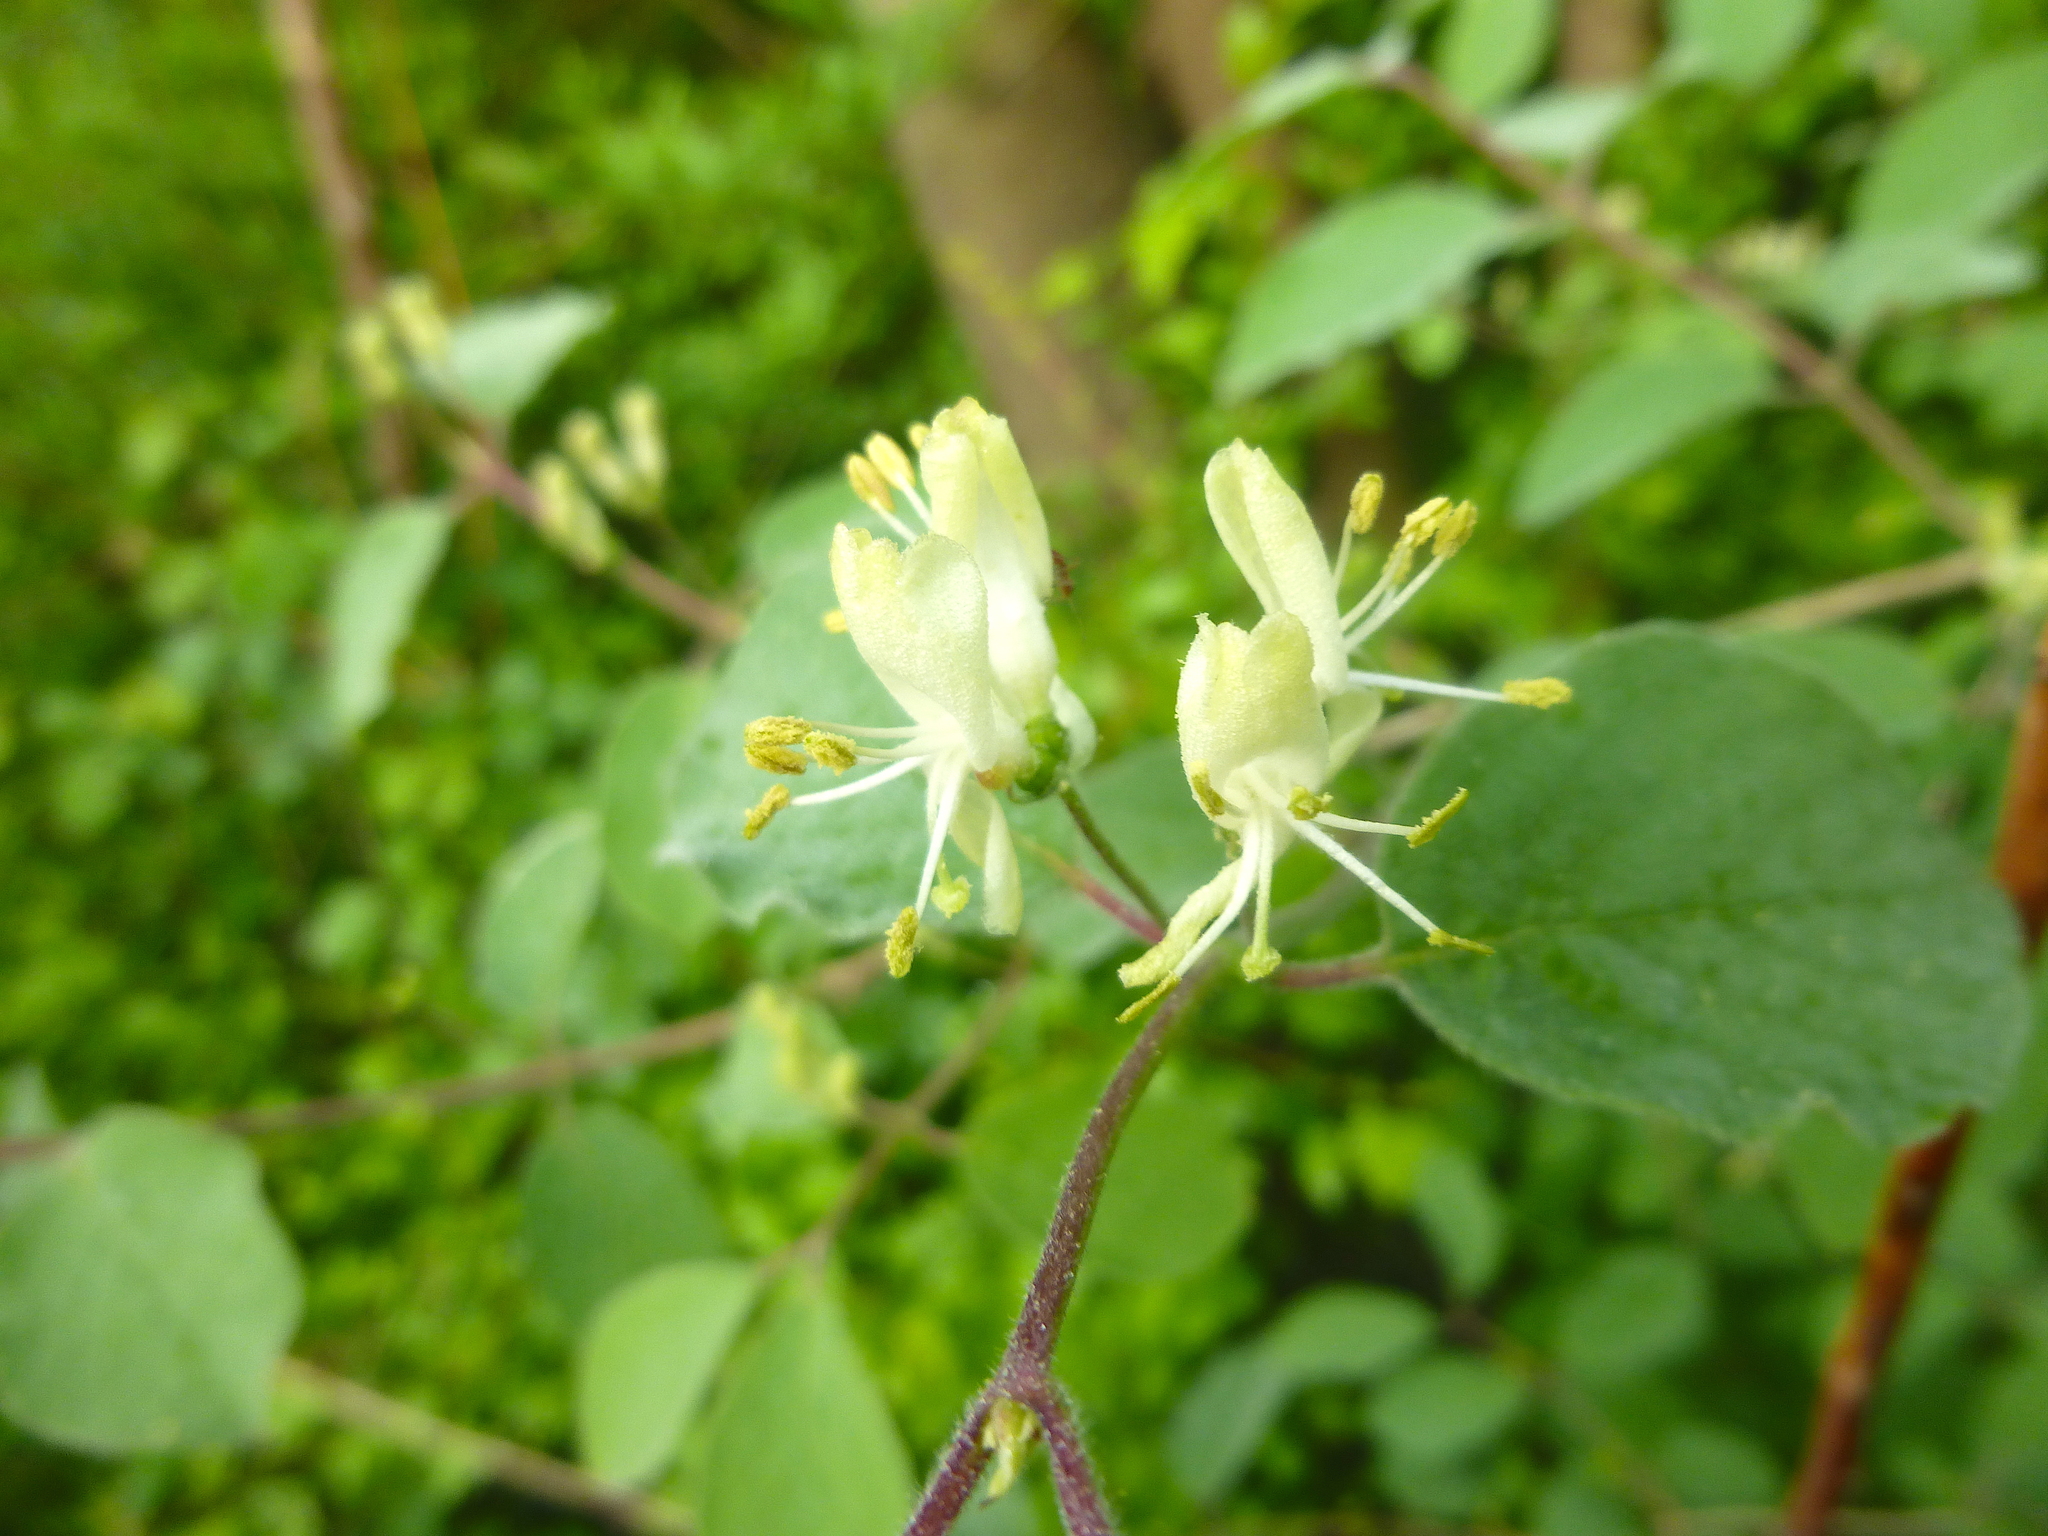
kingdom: Plantae
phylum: Tracheophyta
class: Magnoliopsida
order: Dipsacales
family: Caprifoliaceae
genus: Lonicera
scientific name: Lonicera xylosteum
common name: Fly honeysuckle
